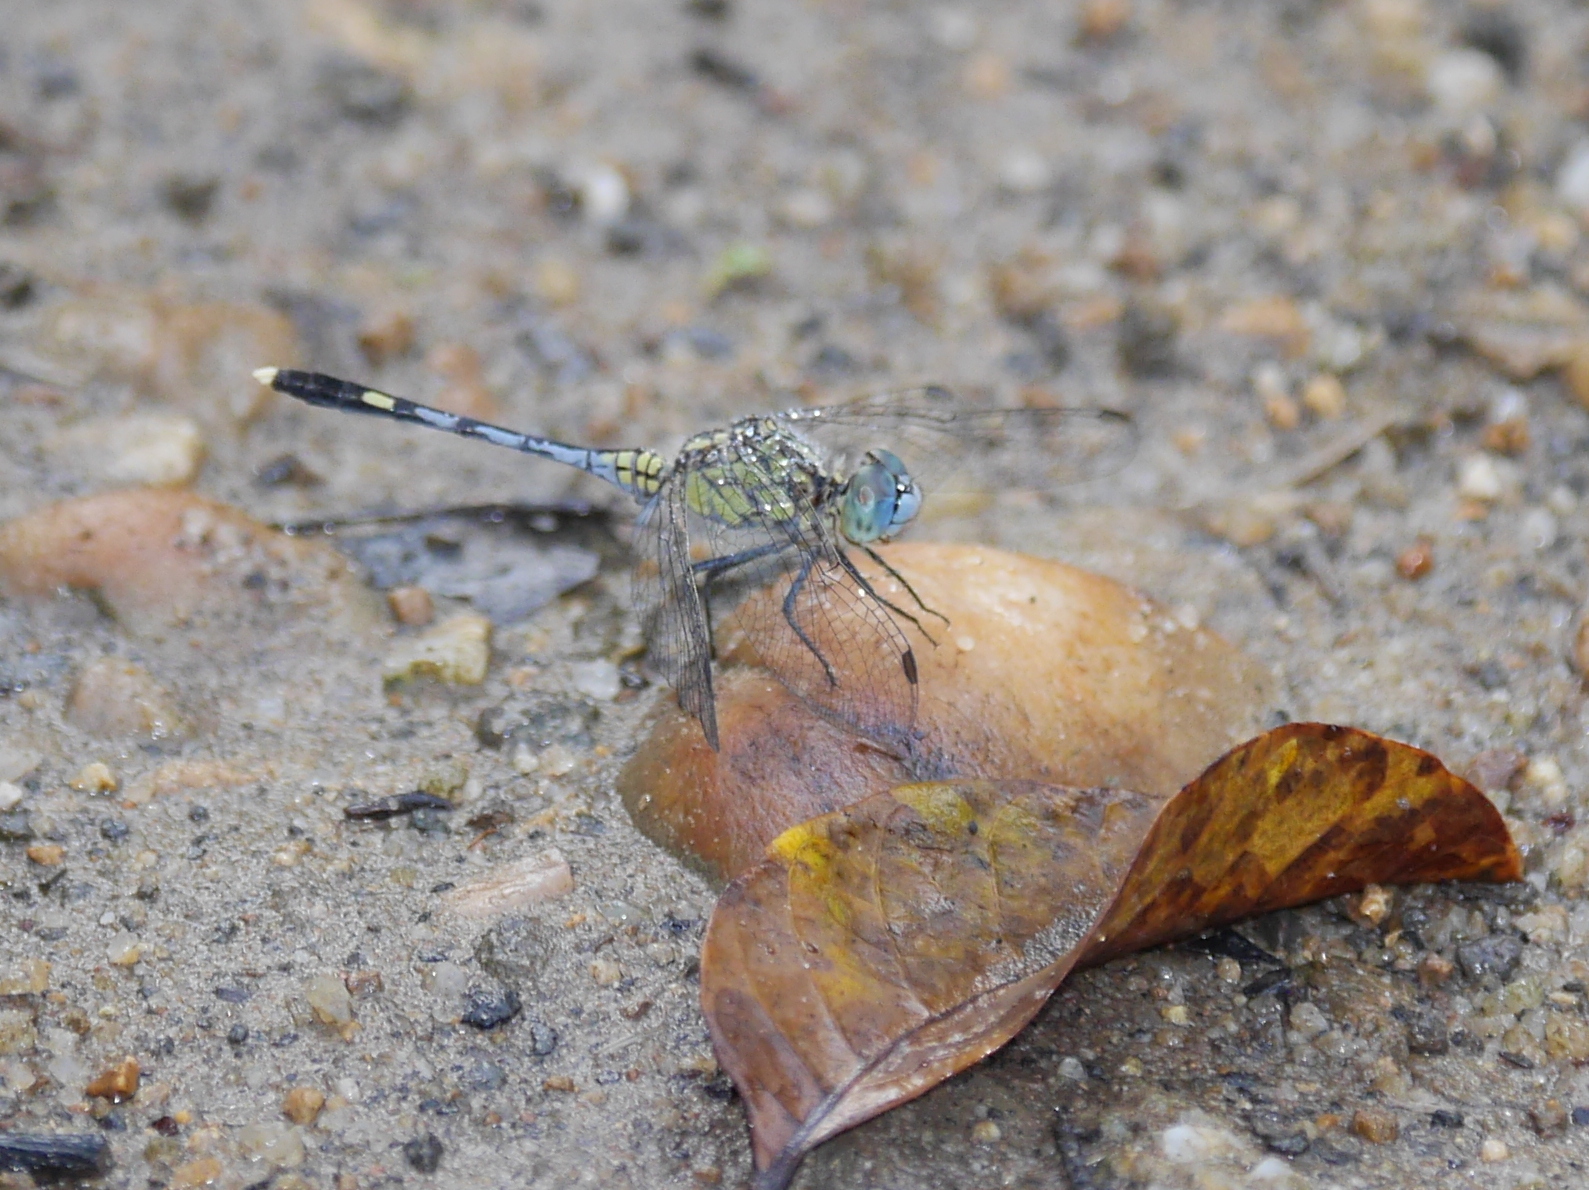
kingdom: Animalia
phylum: Arthropoda
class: Insecta
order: Odonata
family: Libellulidae
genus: Diplacodes
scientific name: Diplacodes trivialis
